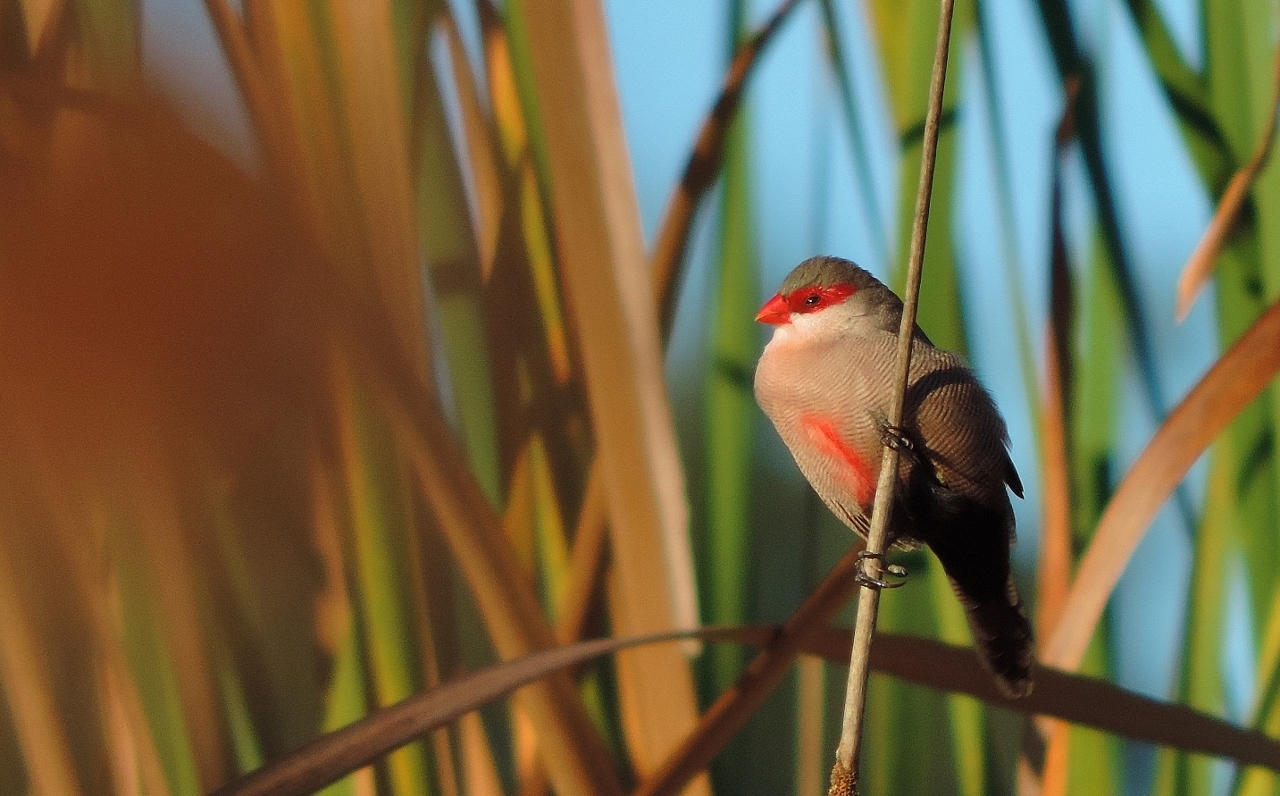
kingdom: Animalia
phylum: Chordata
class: Aves
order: Passeriformes
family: Estrildidae
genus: Estrilda
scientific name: Estrilda astrild
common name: Common waxbill
